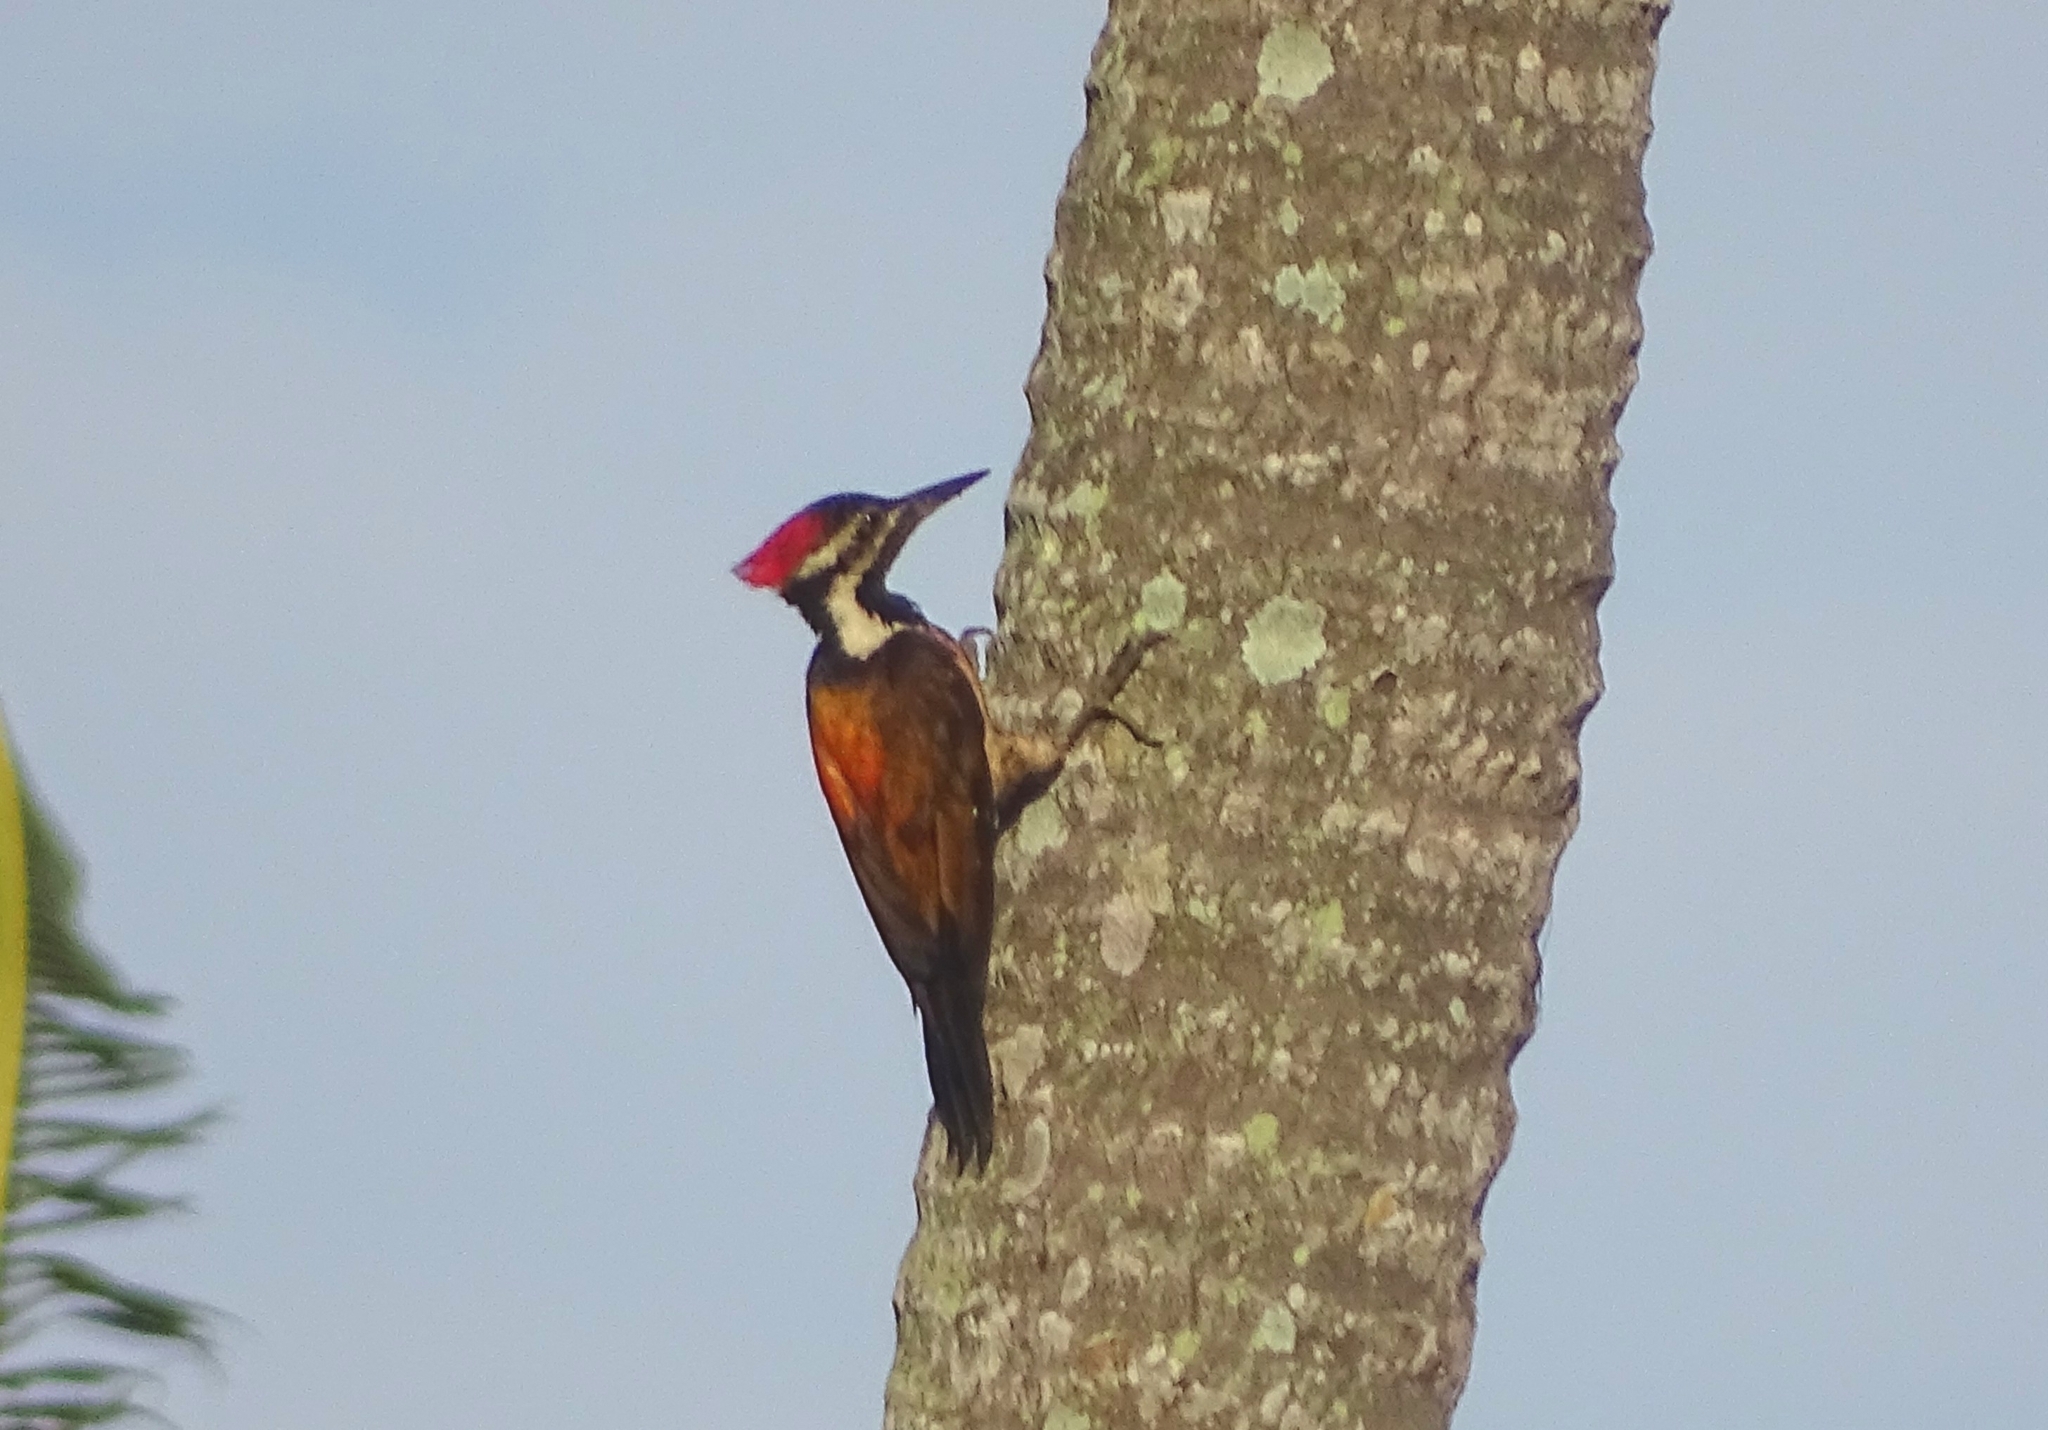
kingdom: Animalia
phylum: Chordata
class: Aves
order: Piciformes
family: Picidae
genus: Dinopium
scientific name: Dinopium benghalense
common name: Black-rumped flameback
